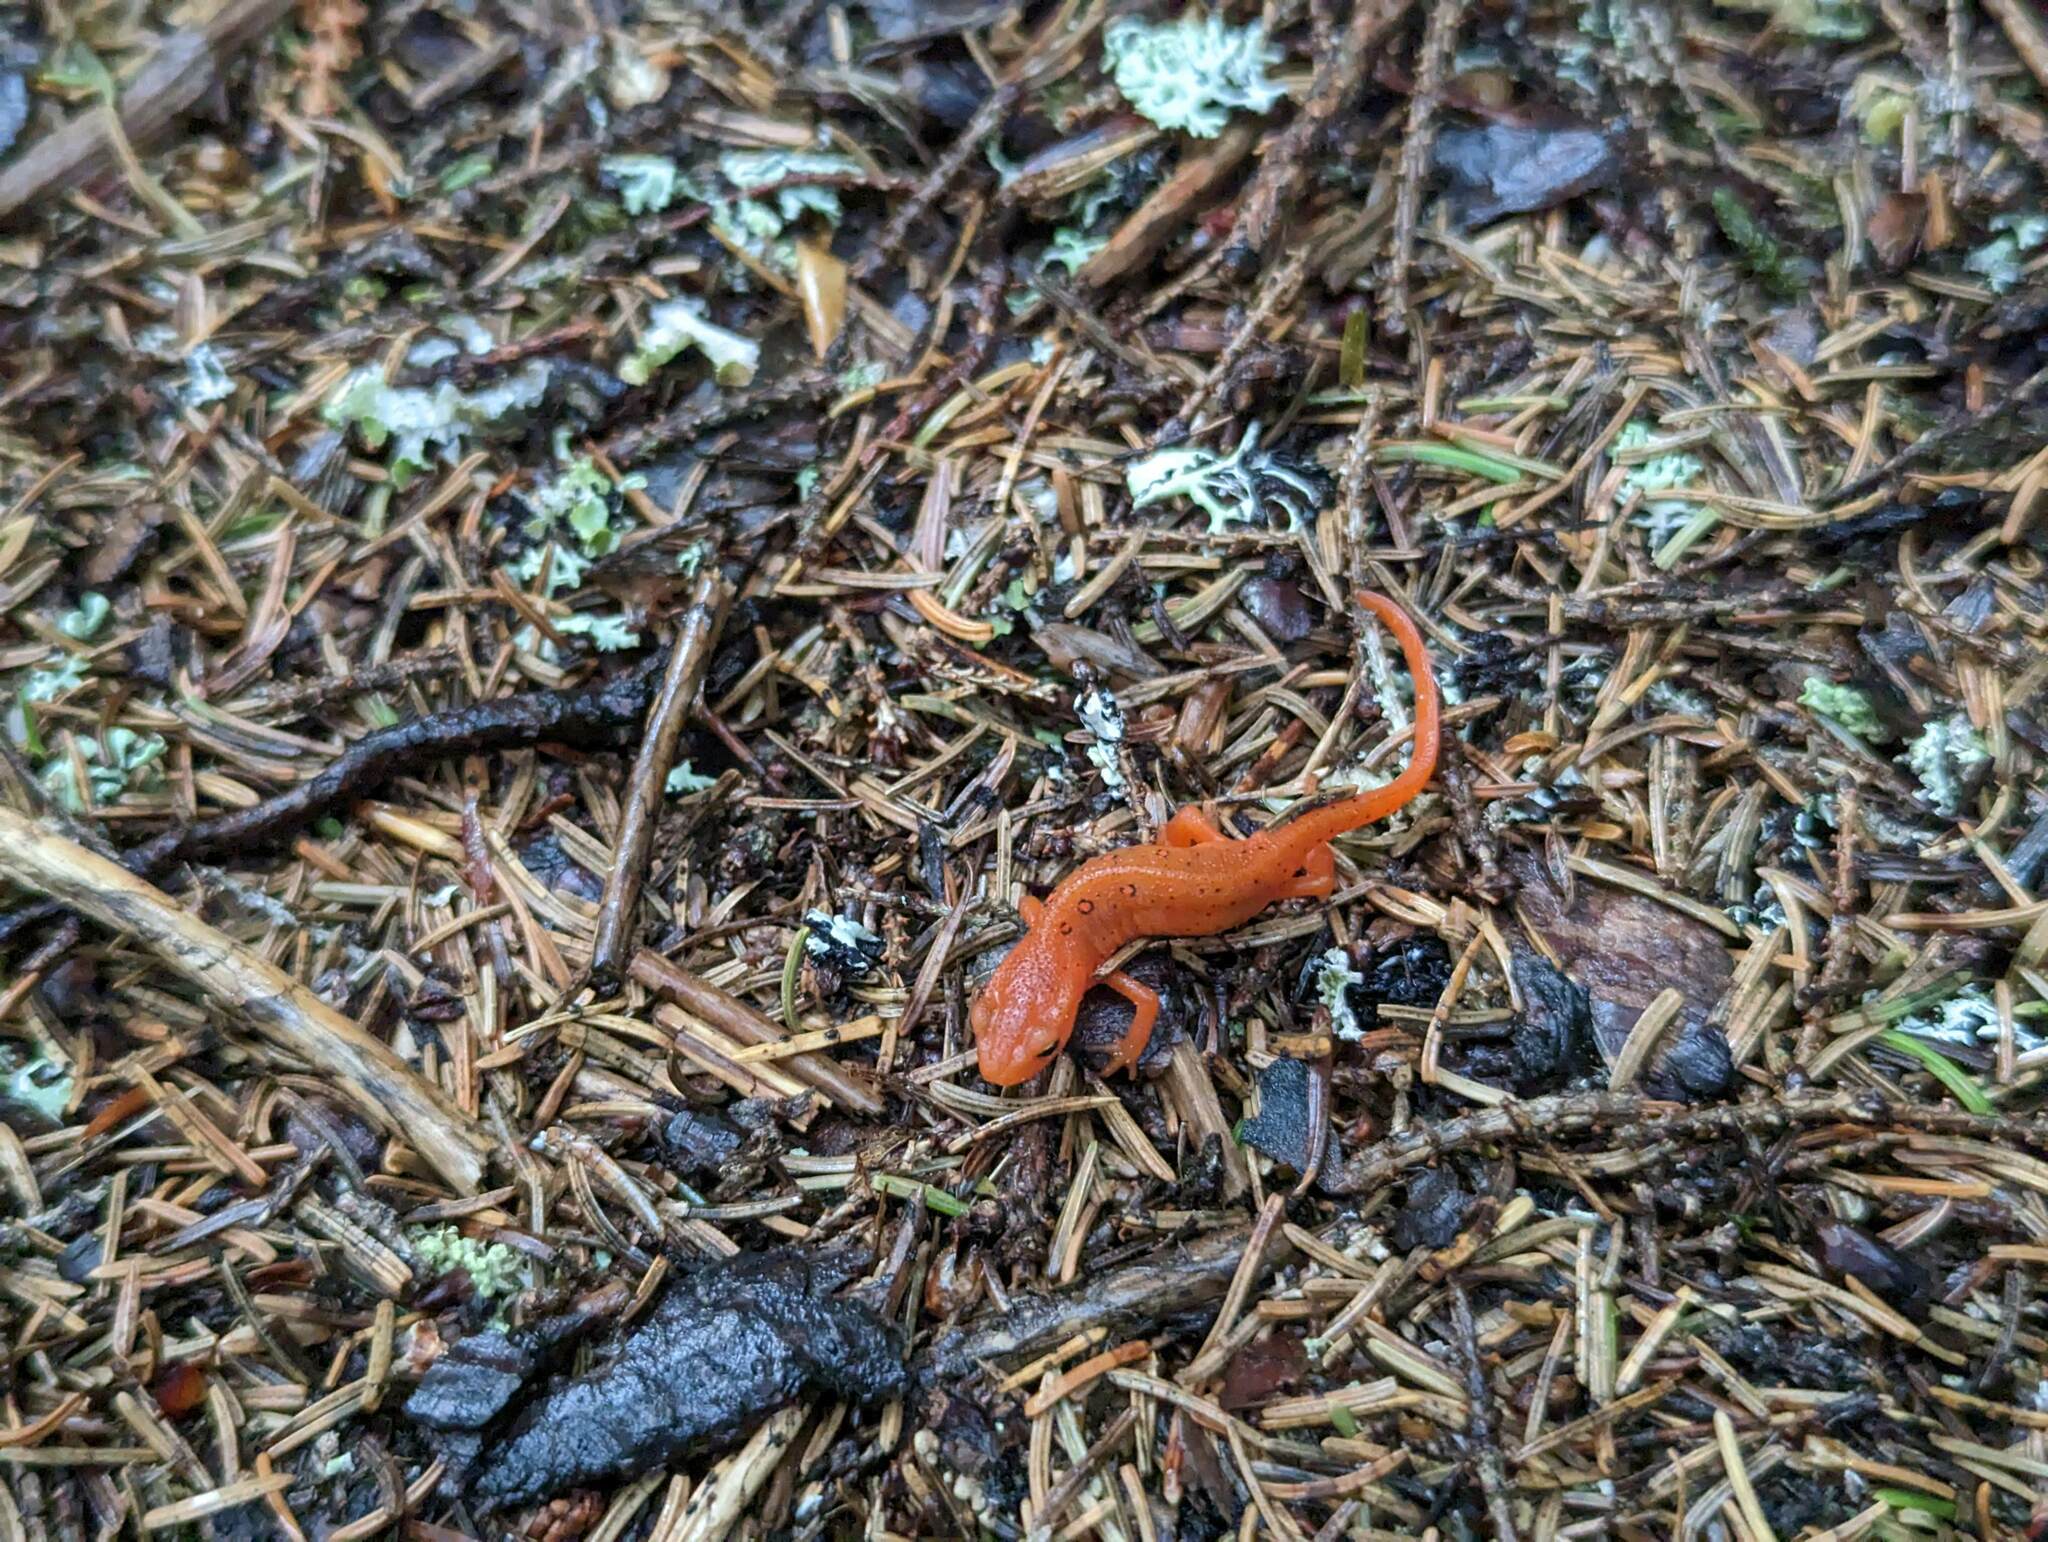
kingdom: Animalia
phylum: Chordata
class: Amphibia
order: Caudata
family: Salamandridae
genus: Notophthalmus
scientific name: Notophthalmus viridescens
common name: Eastern newt
